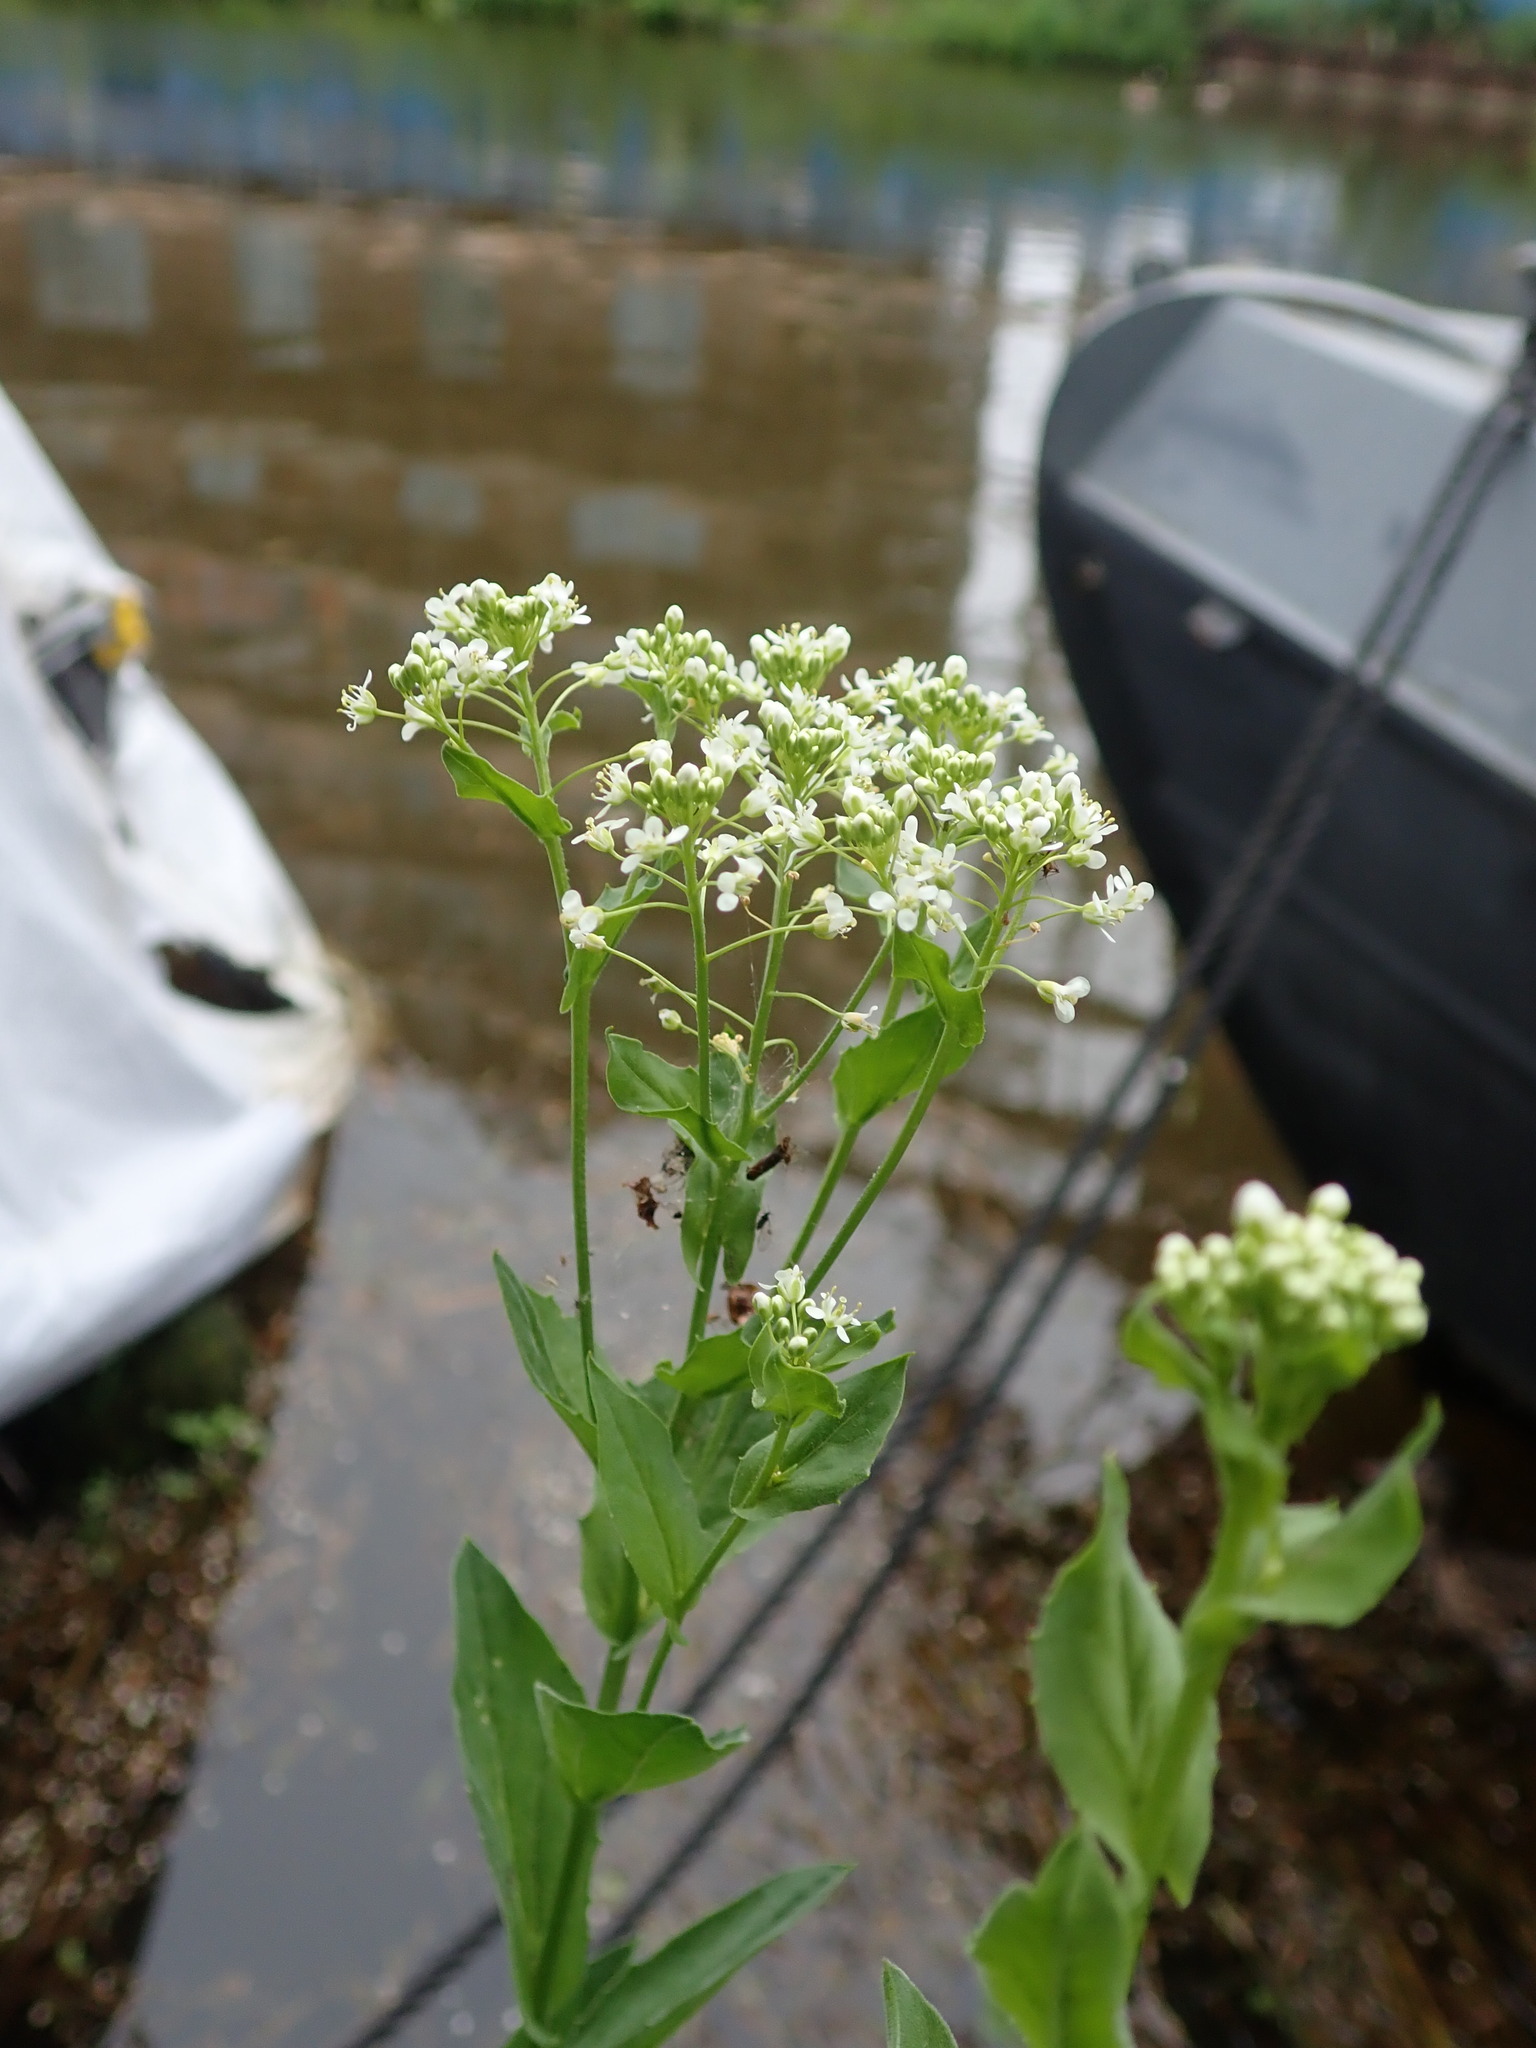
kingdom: Plantae
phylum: Tracheophyta
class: Magnoliopsida
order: Brassicales
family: Brassicaceae
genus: Lepidium
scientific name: Lepidium draba
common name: Hoary cress
